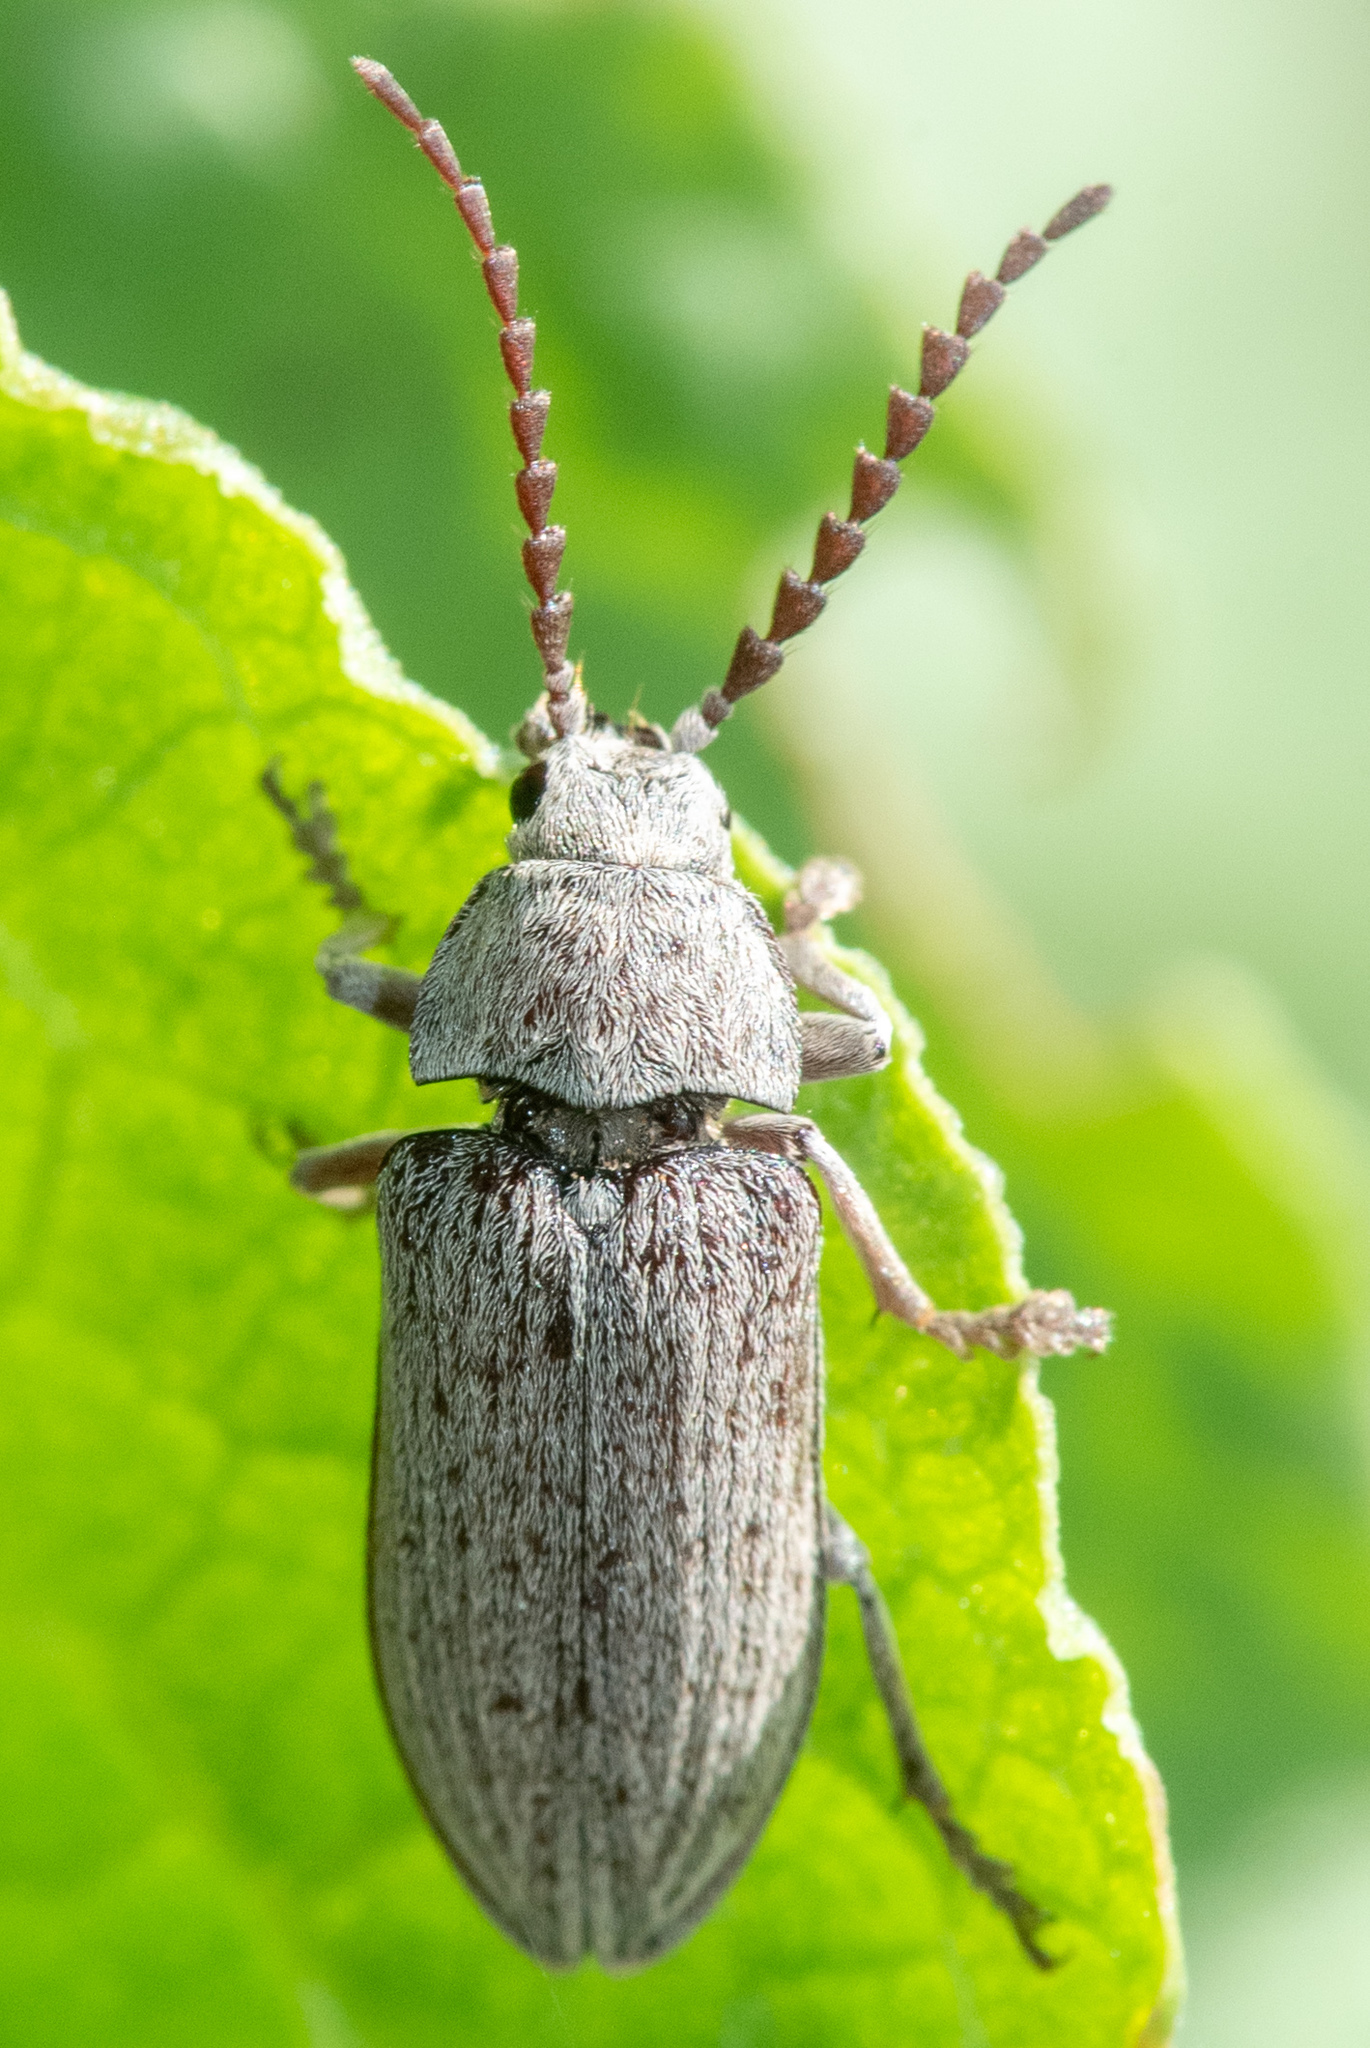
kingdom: Animalia
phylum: Arthropoda
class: Insecta
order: Coleoptera
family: Dascillidae
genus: Dascillus
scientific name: Dascillus davidsoni
